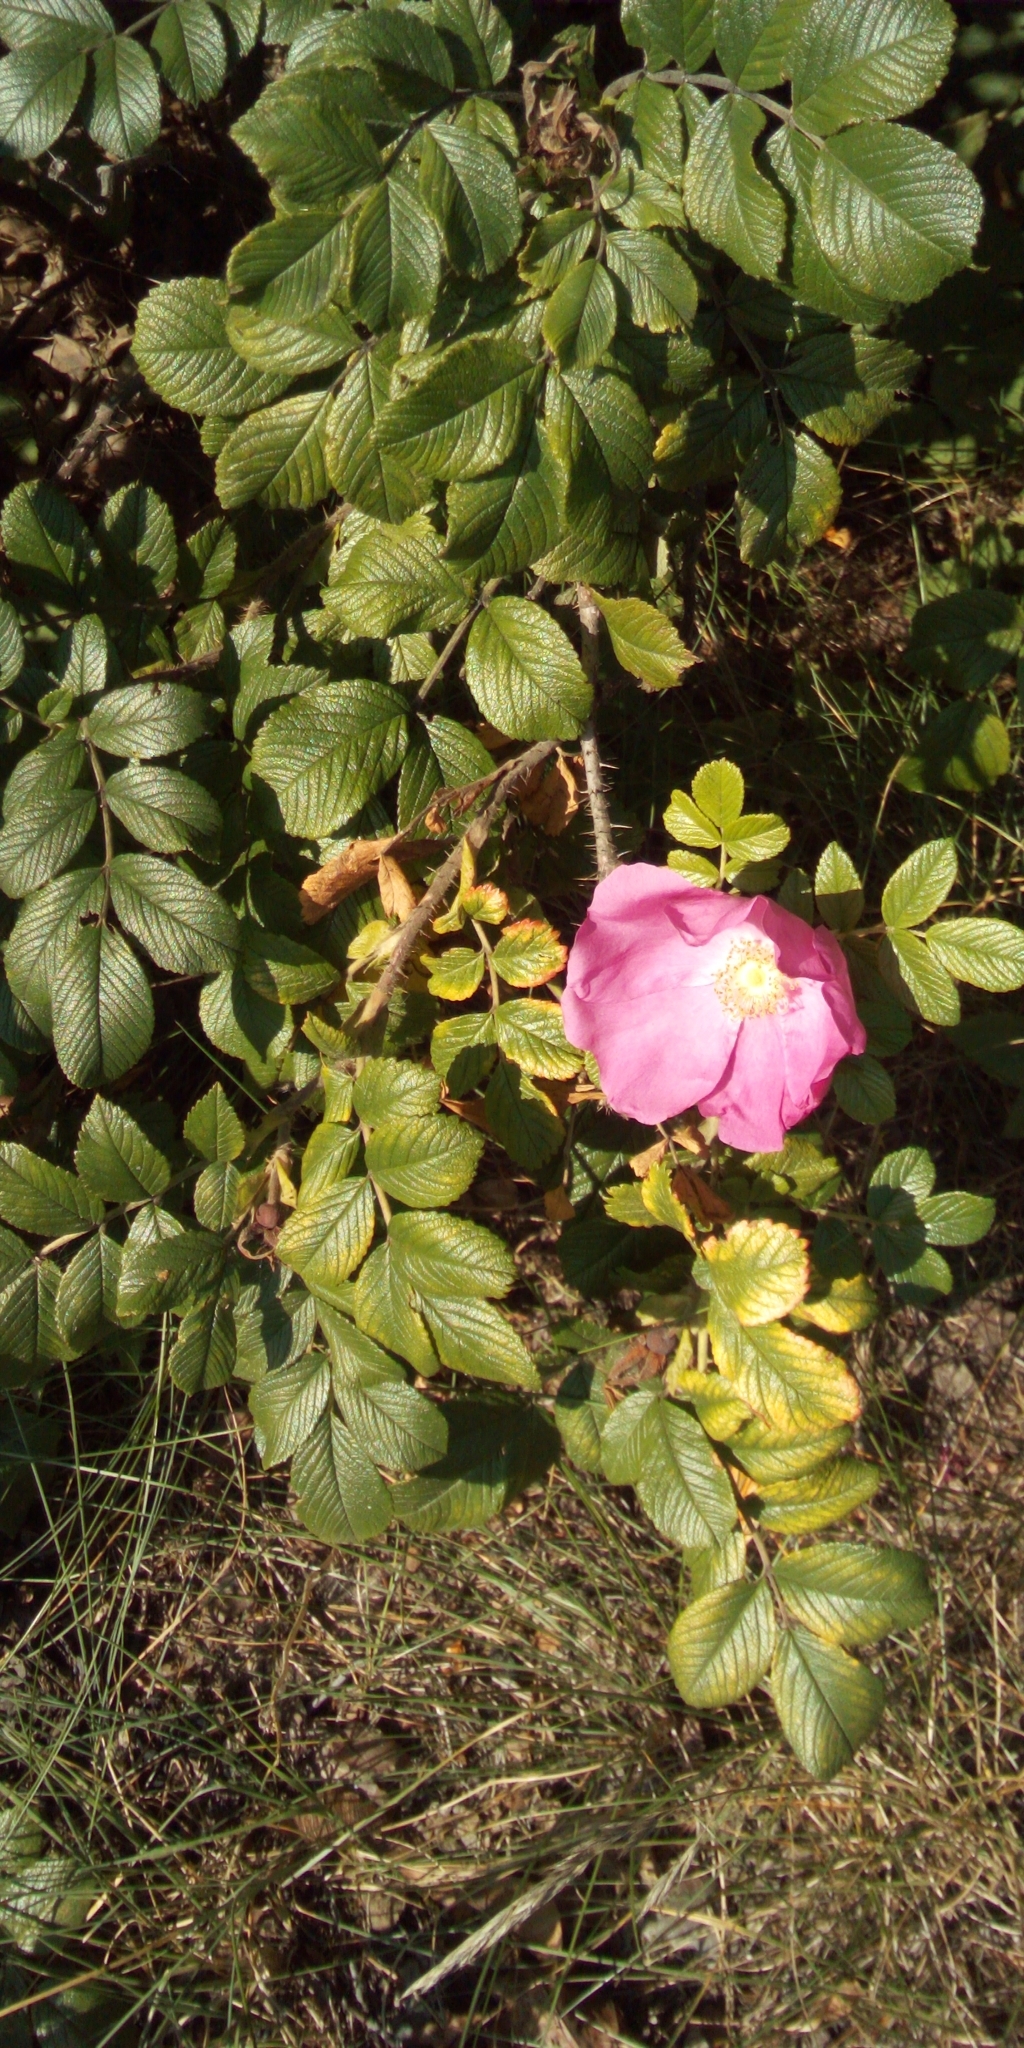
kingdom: Plantae
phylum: Tracheophyta
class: Magnoliopsida
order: Rosales
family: Rosaceae
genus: Rosa
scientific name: Rosa rugosa
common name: Japanese rose
